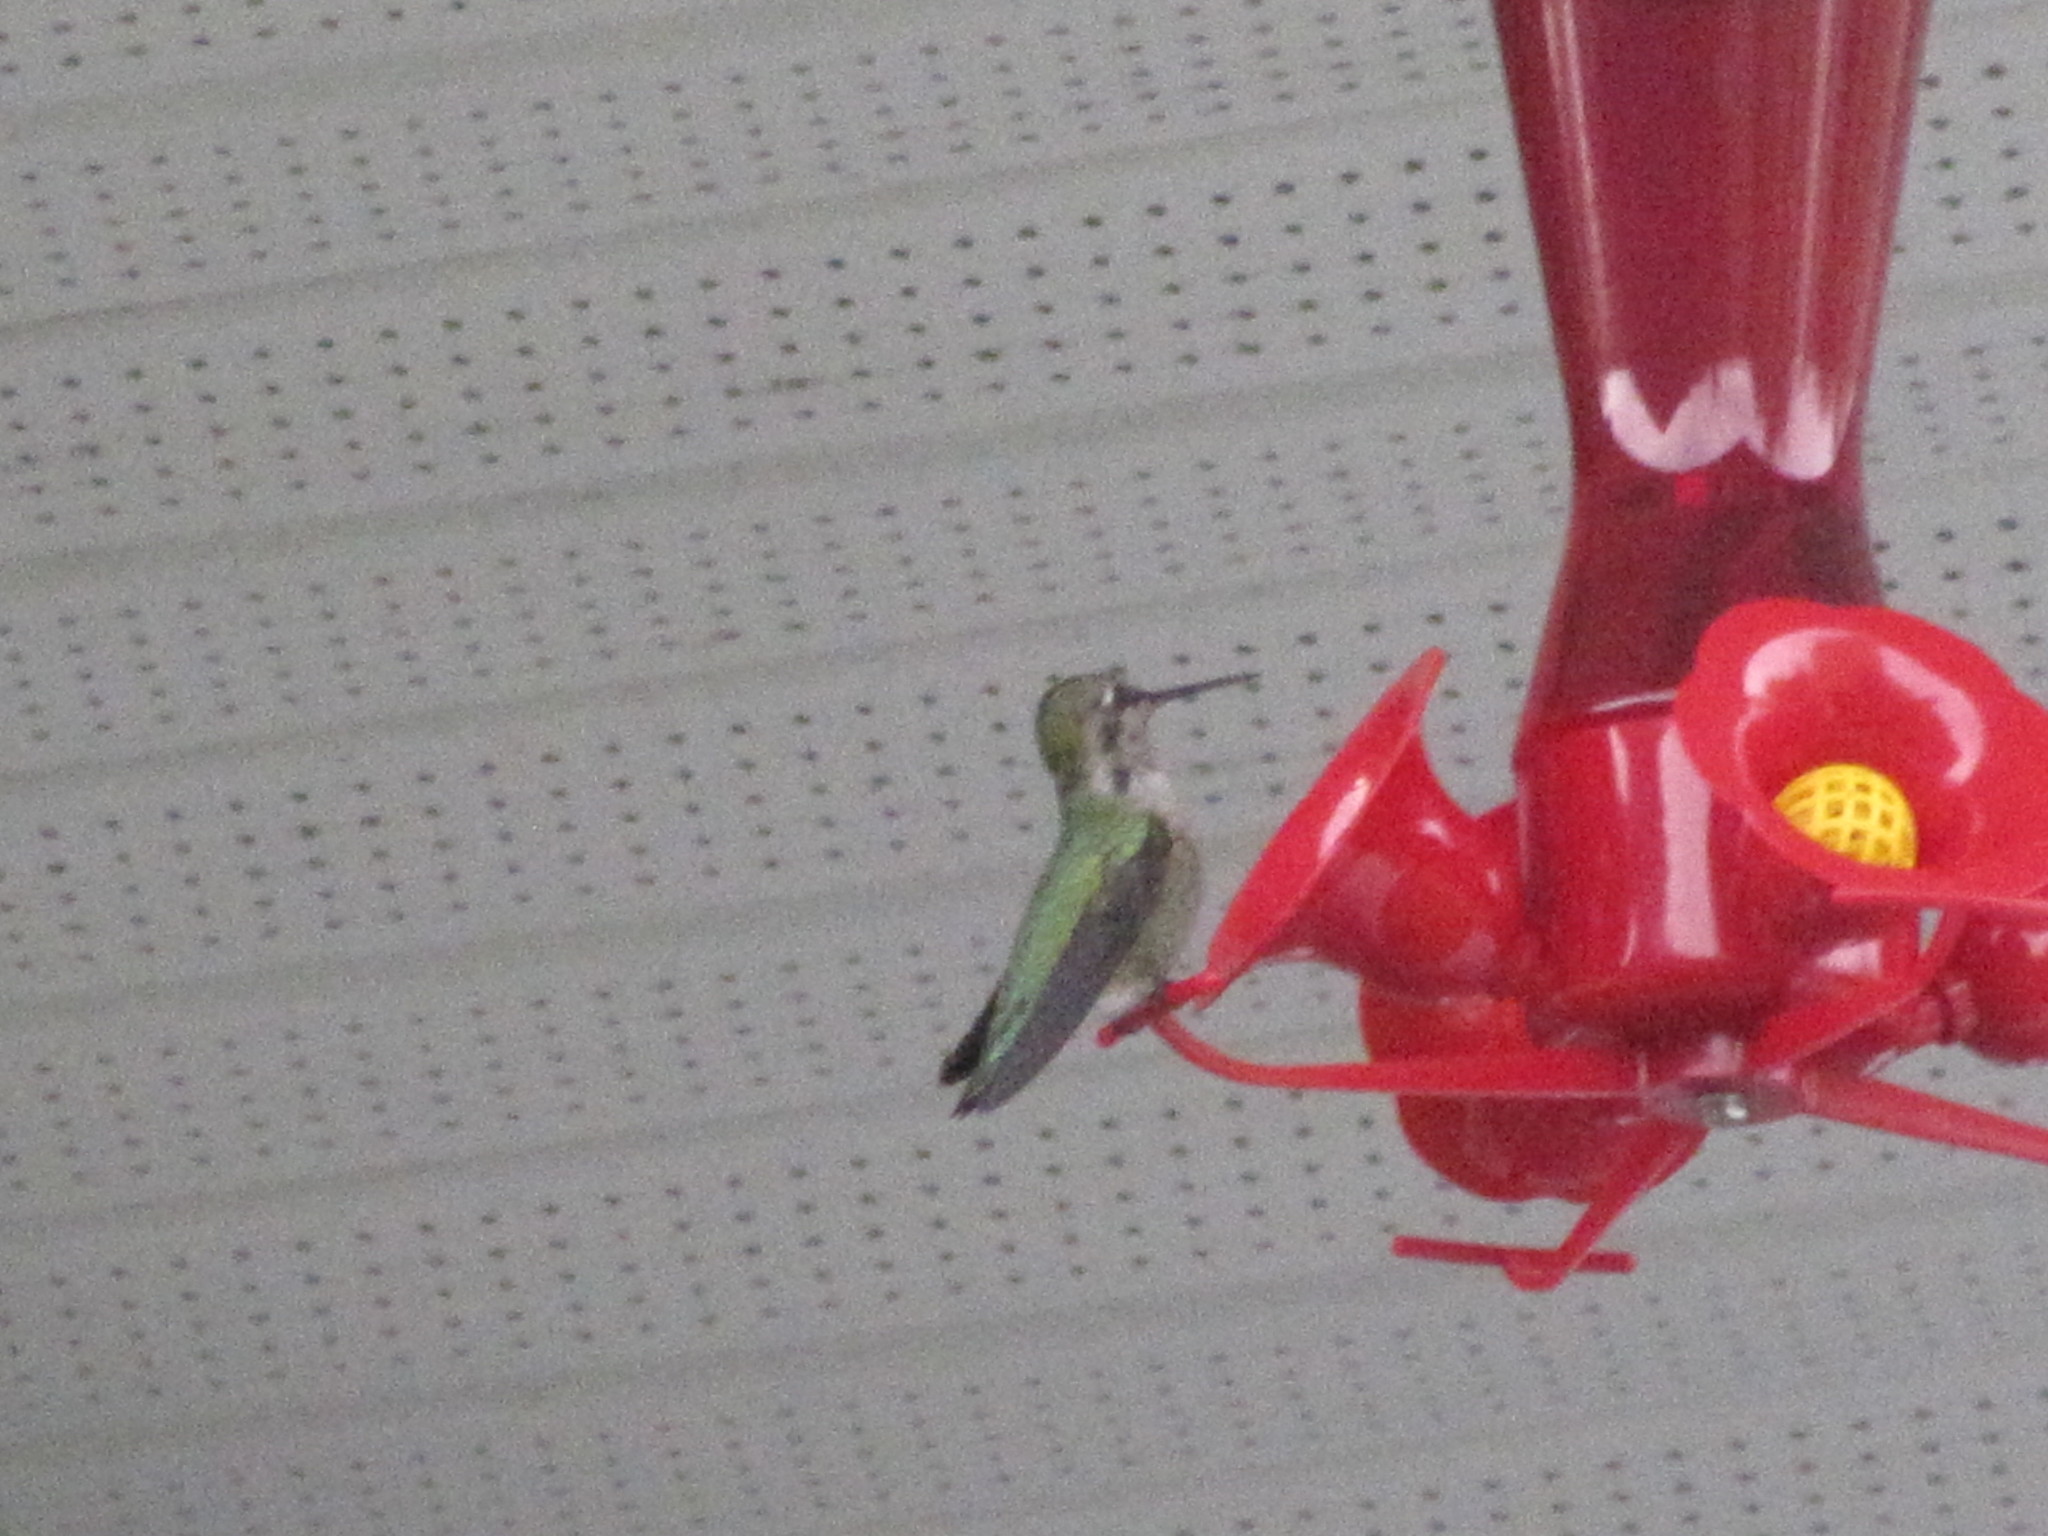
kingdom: Animalia
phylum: Chordata
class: Aves
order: Apodiformes
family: Trochilidae
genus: Calypte
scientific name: Calypte anna
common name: Anna's hummingbird
